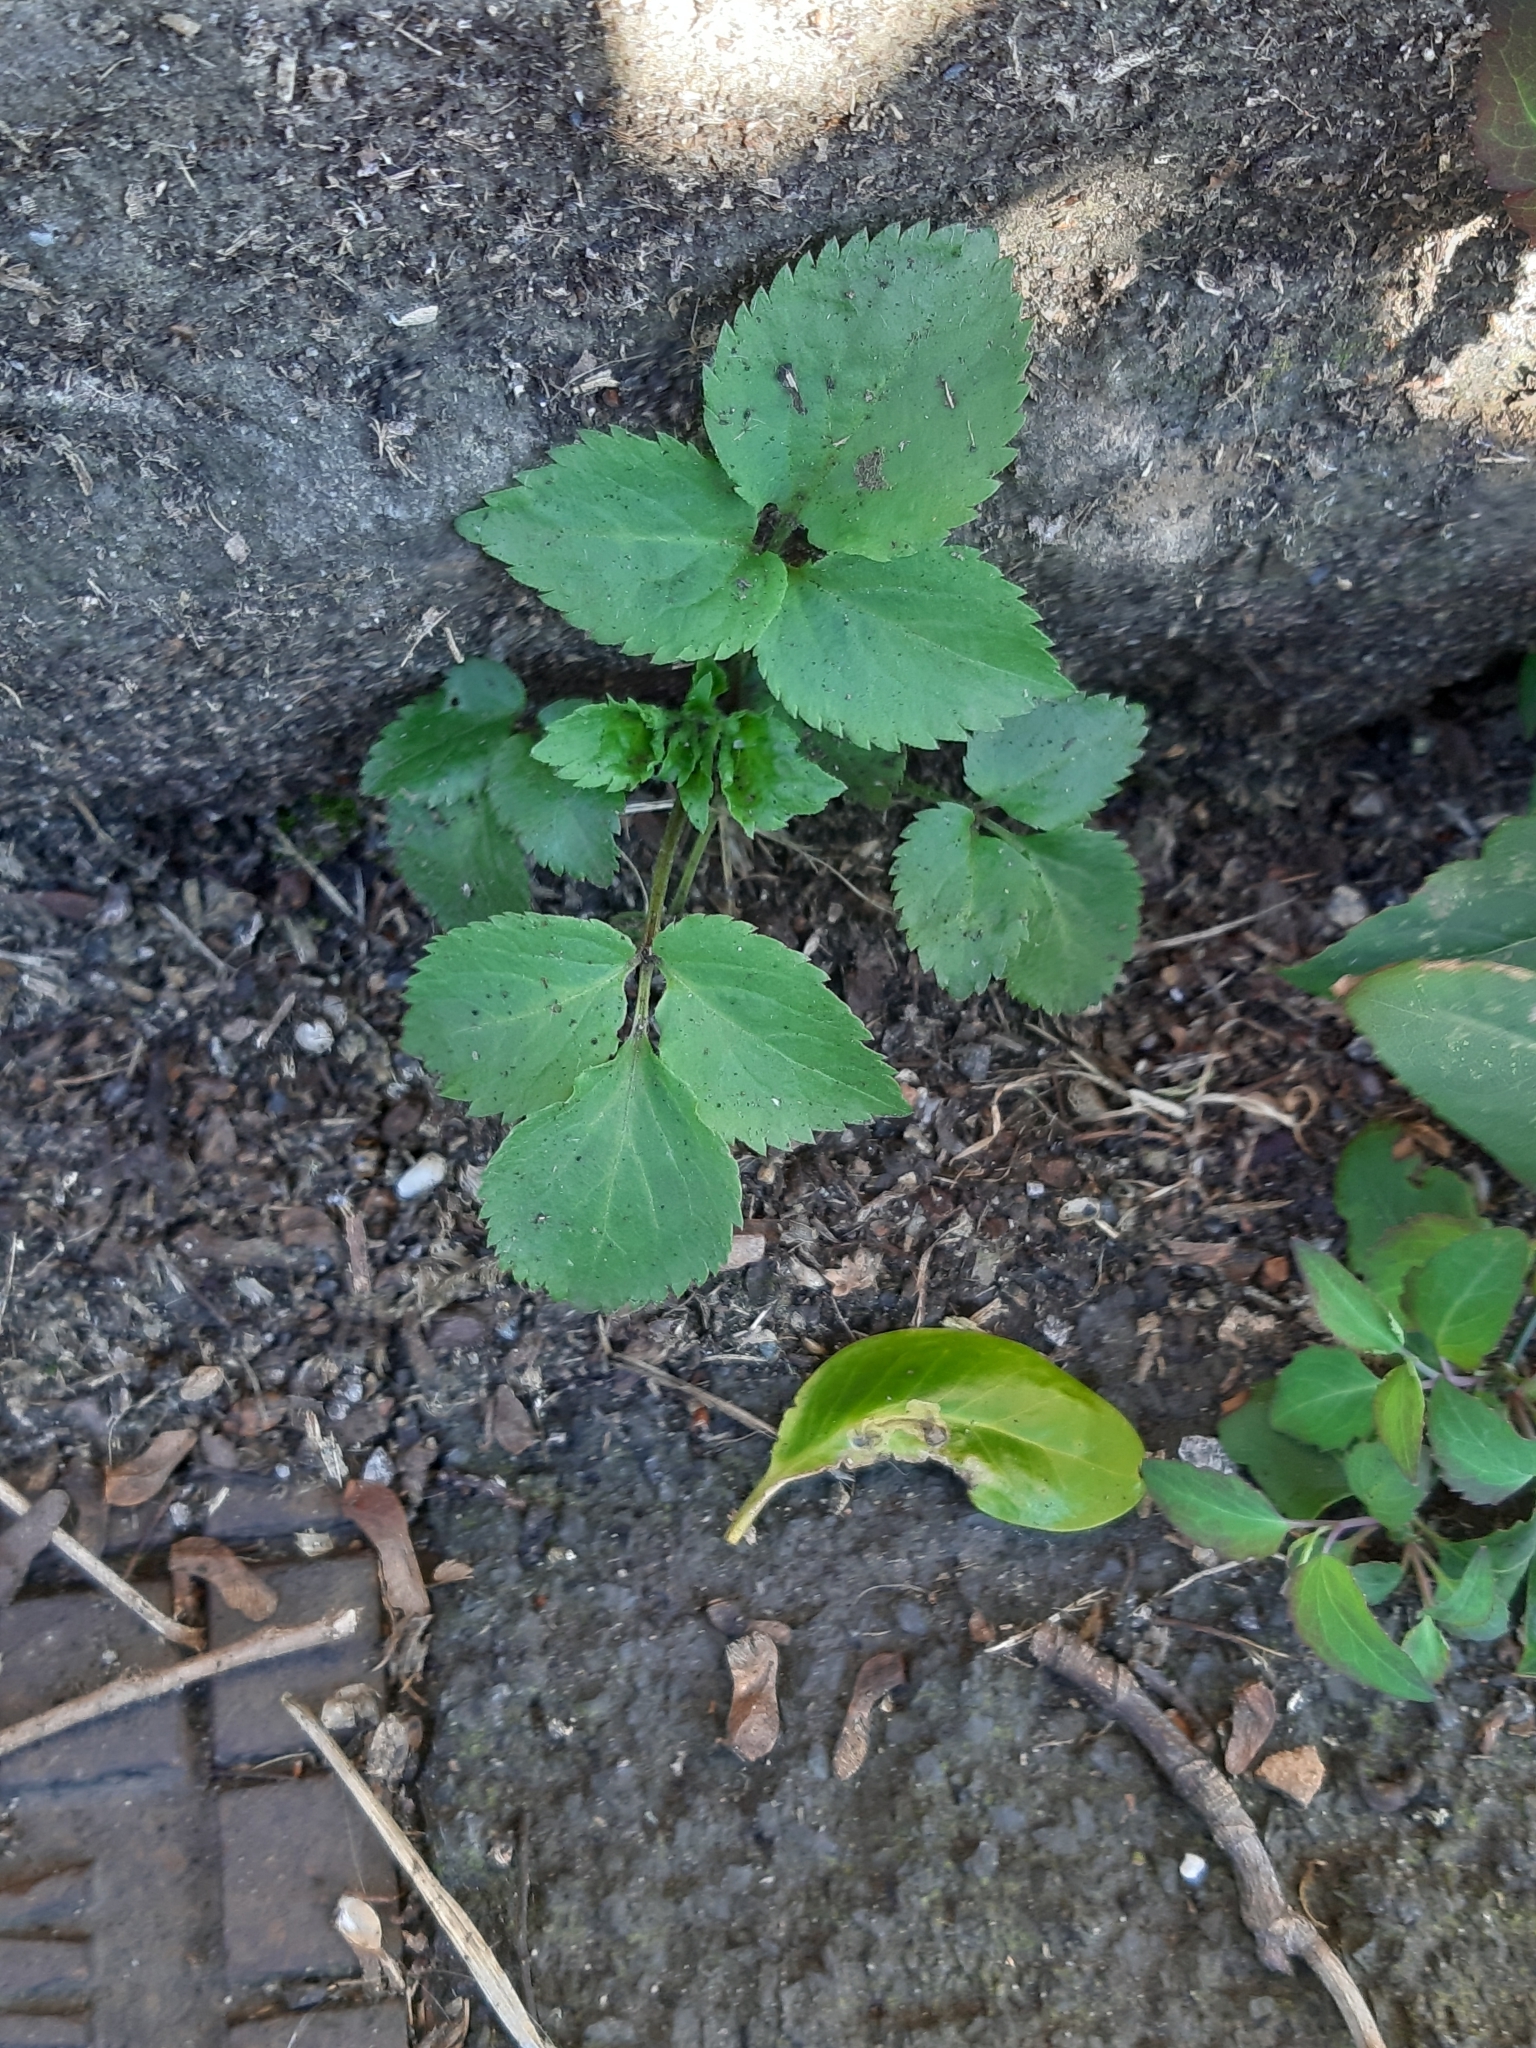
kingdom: Plantae
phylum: Tracheophyta
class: Magnoliopsida
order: Dipsacales
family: Viburnaceae
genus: Sambucus
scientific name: Sambucus nigra
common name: Elder
